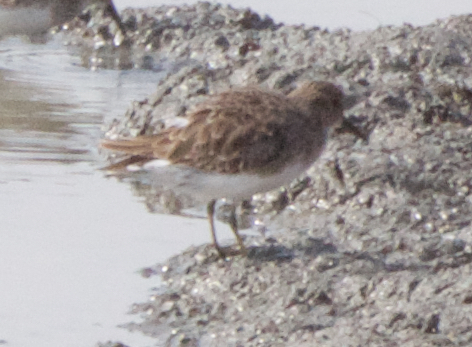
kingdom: Animalia
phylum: Chordata
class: Aves
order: Charadriiformes
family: Scolopacidae
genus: Calidris
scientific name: Calidris minutilla
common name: Least sandpiper
